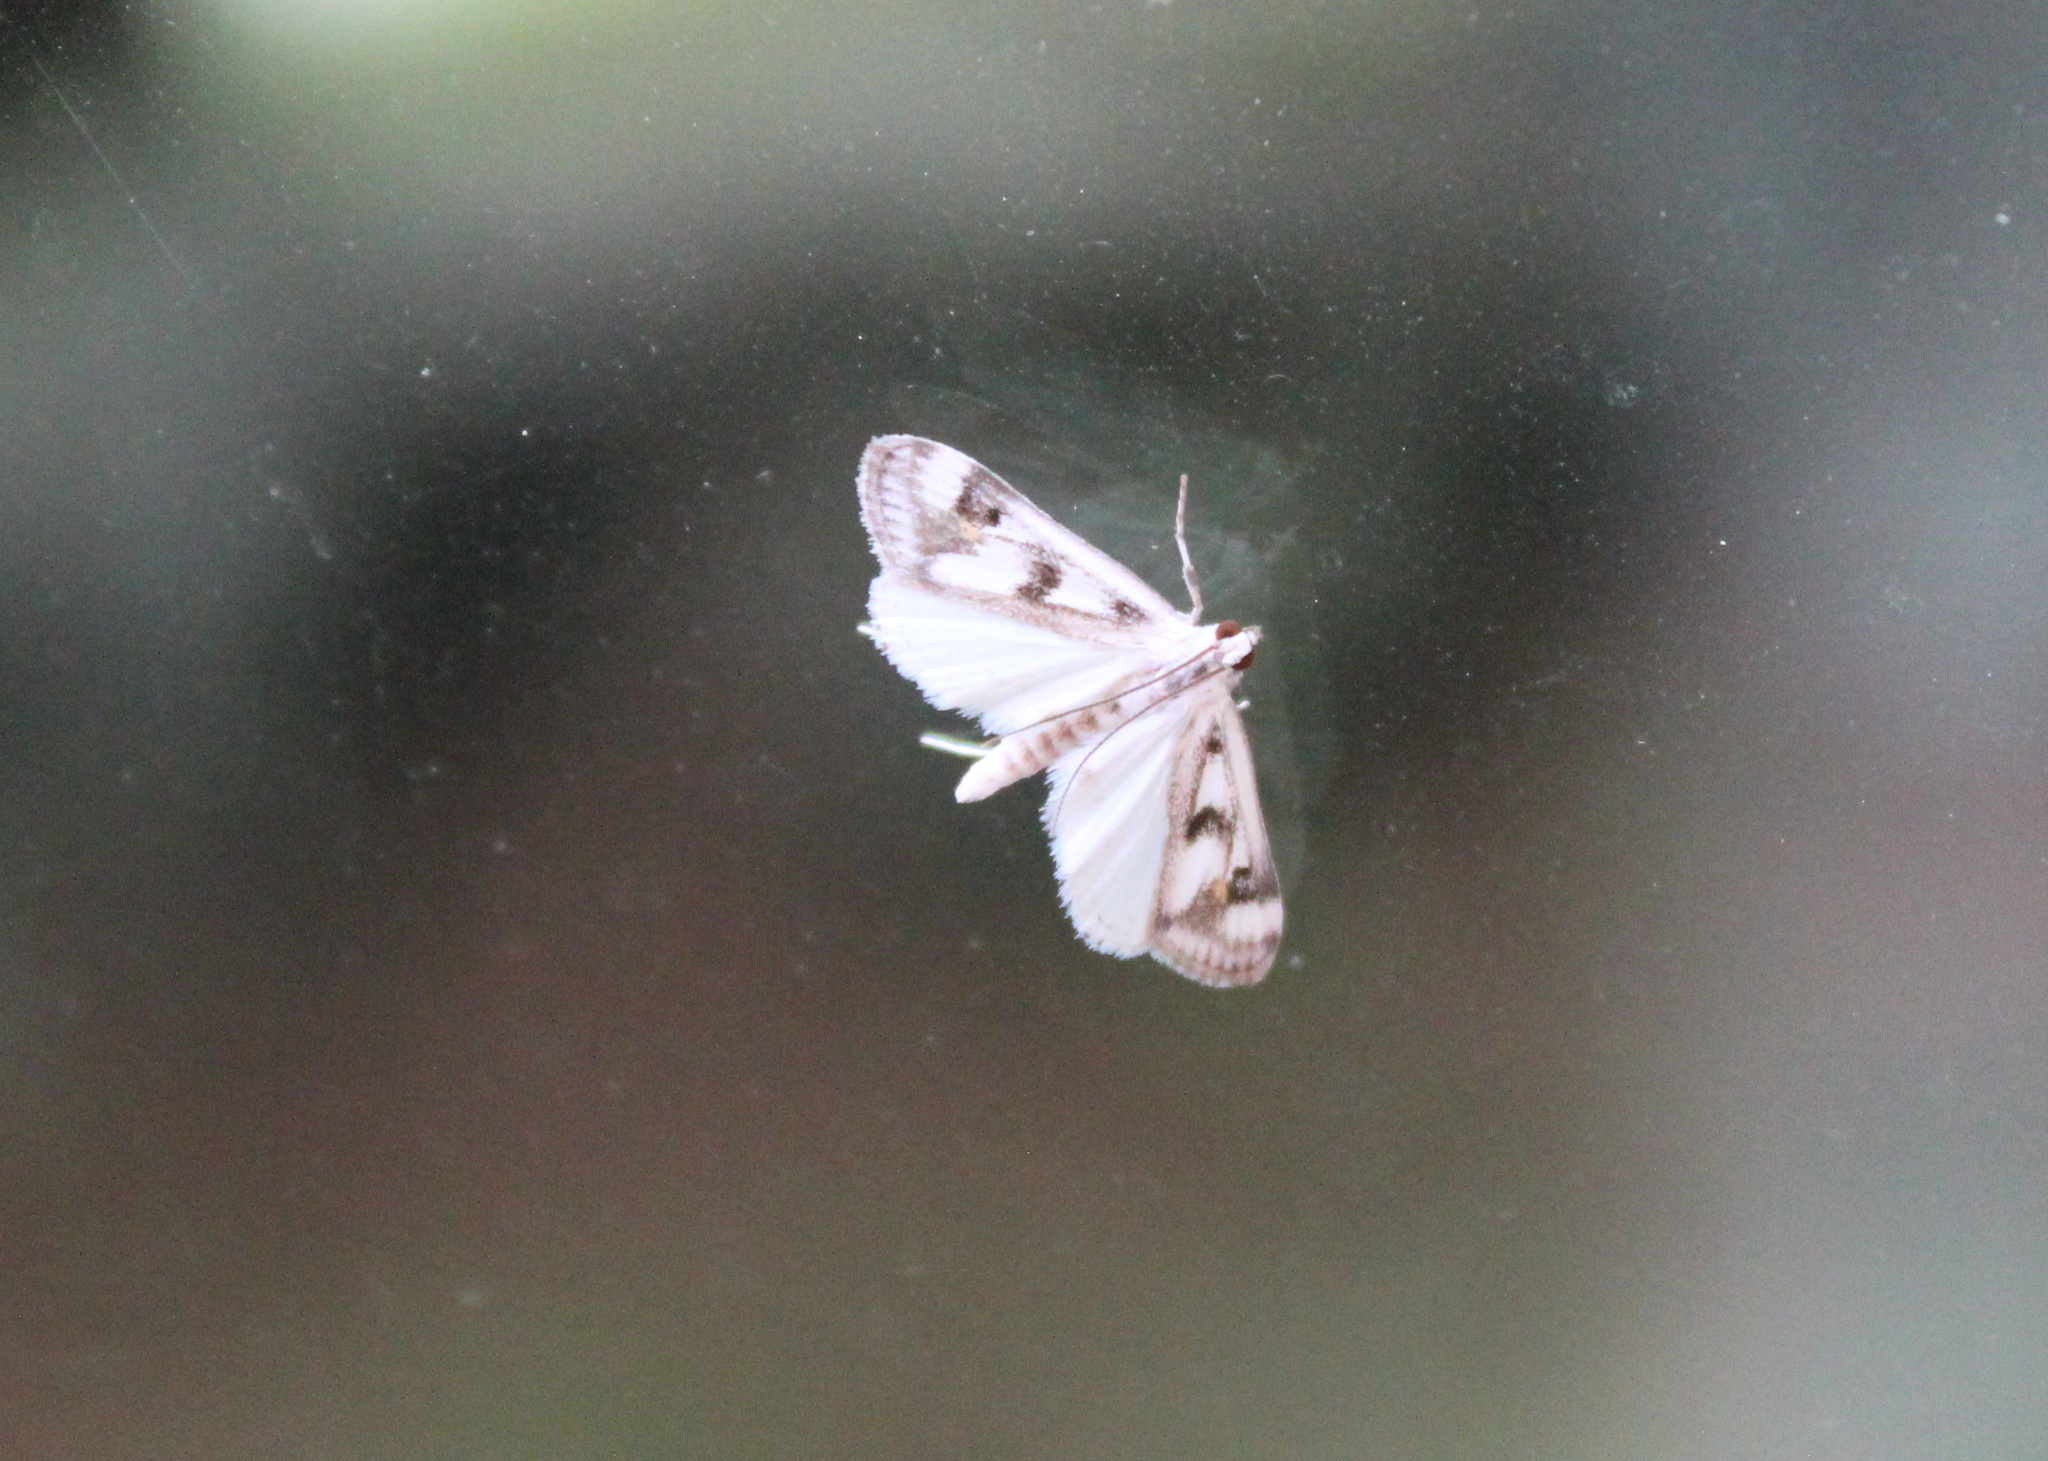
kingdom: Animalia
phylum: Arthropoda
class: Insecta
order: Lepidoptera
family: Crambidae
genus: Parapoynx
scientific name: Parapoynx maculalis
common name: Polymorphic pondweed moth
